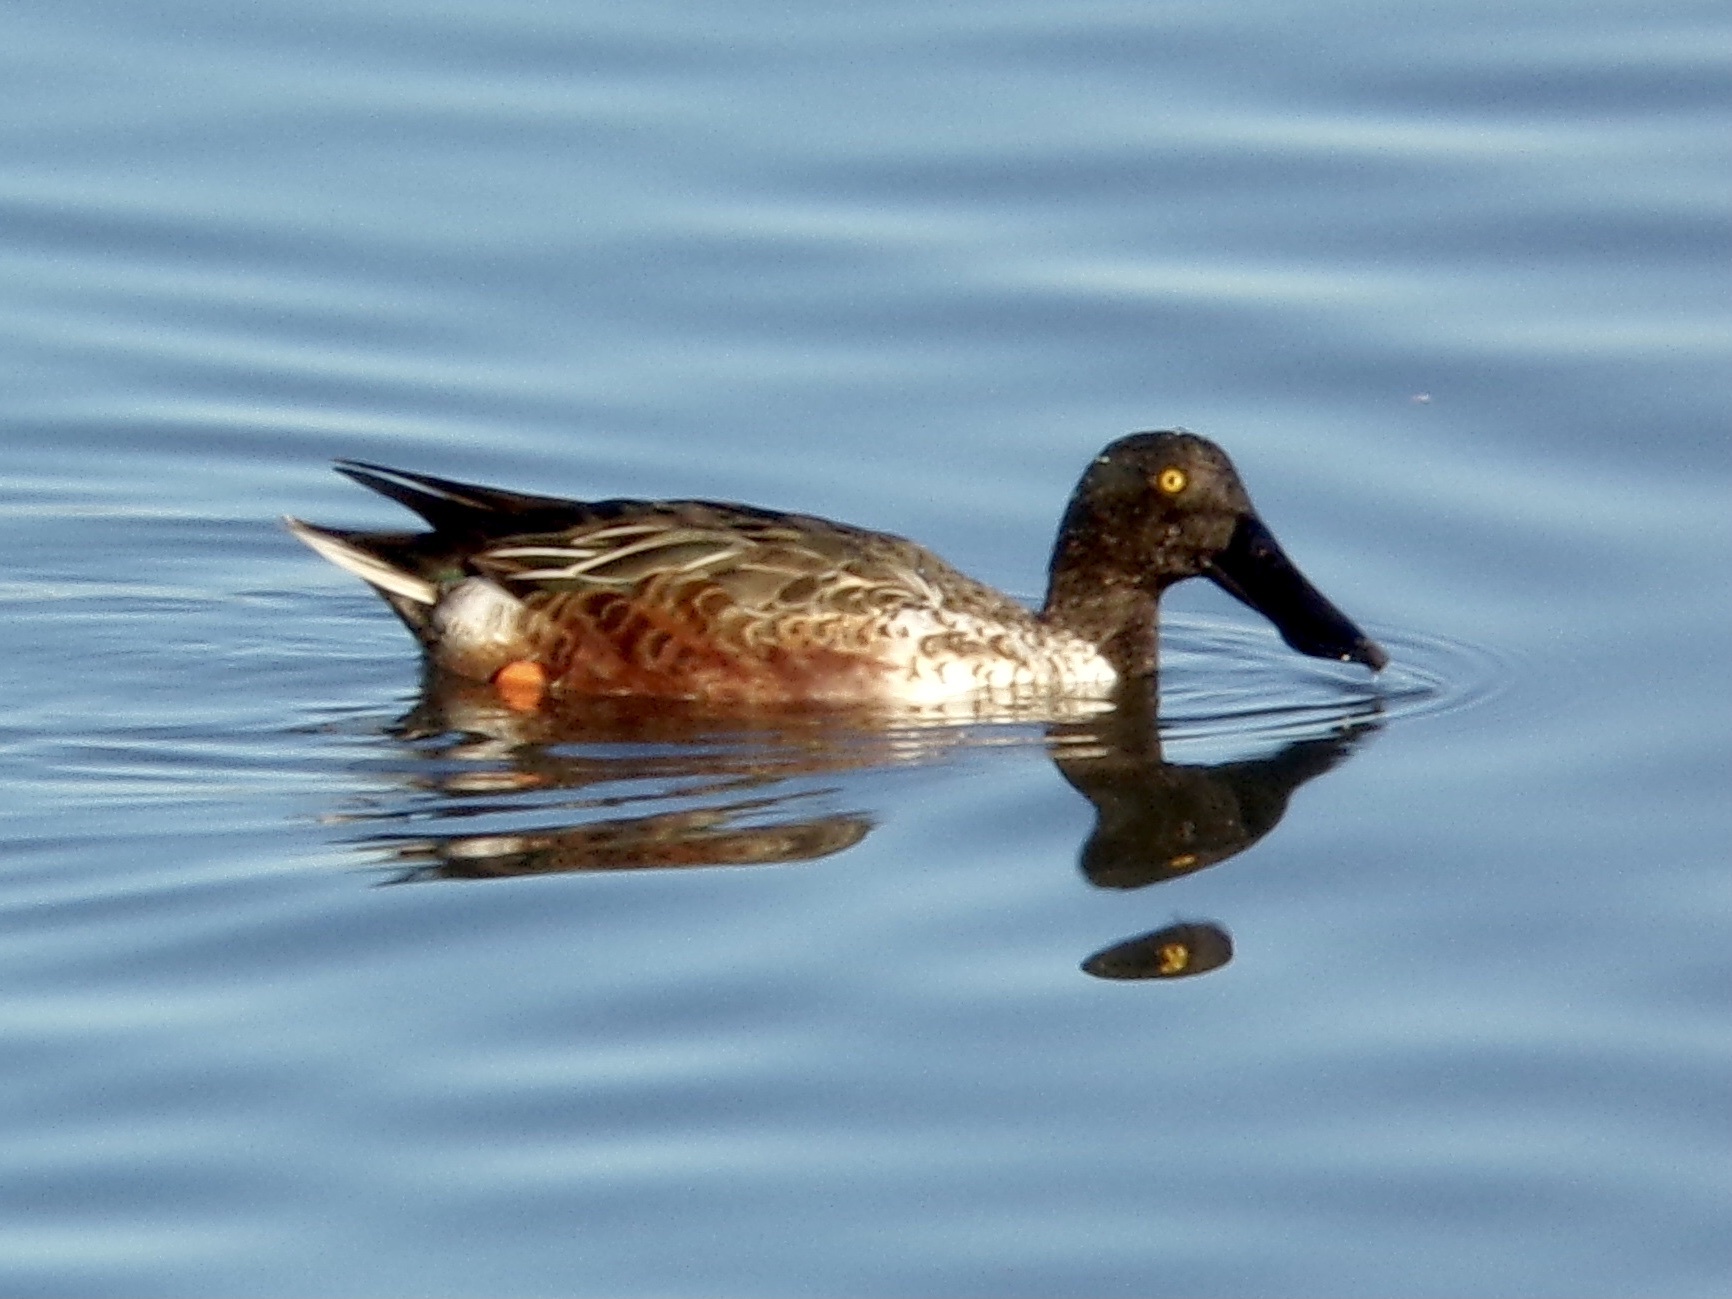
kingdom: Animalia
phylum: Chordata
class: Aves
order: Anseriformes
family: Anatidae
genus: Spatula
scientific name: Spatula clypeata
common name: Northern shoveler
